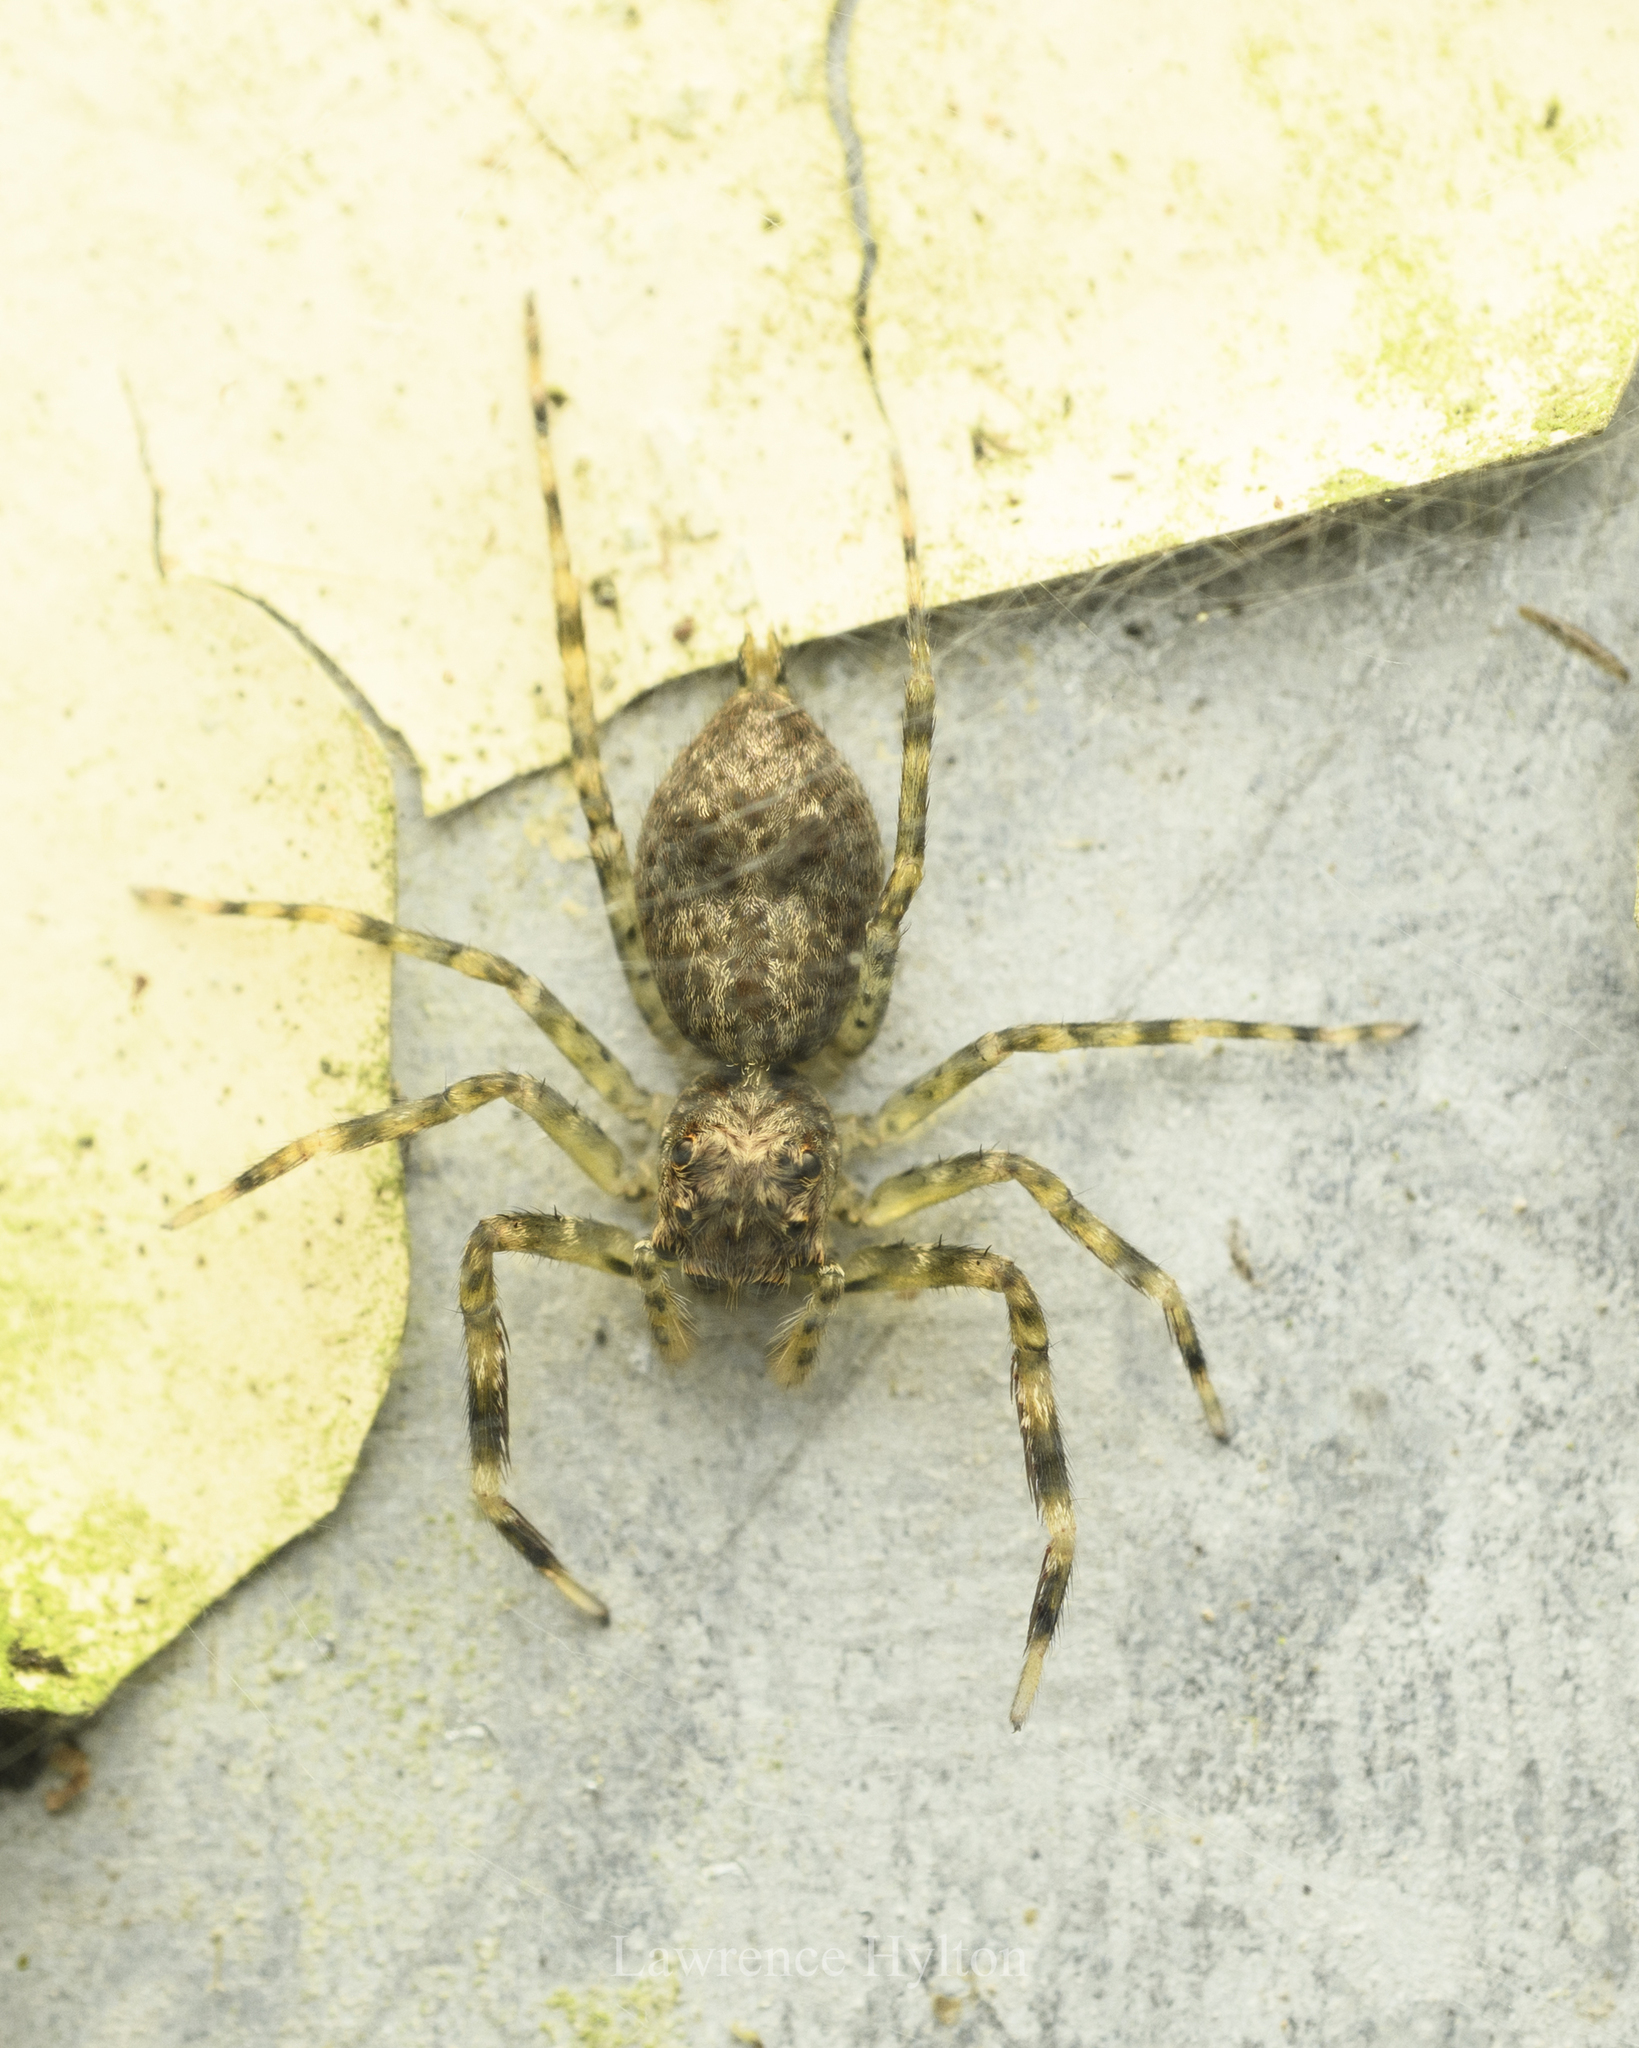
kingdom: Animalia
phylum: Arthropoda
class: Arachnida
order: Araneae
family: Salticidae
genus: Spartaeus
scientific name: Spartaeus zhangi
